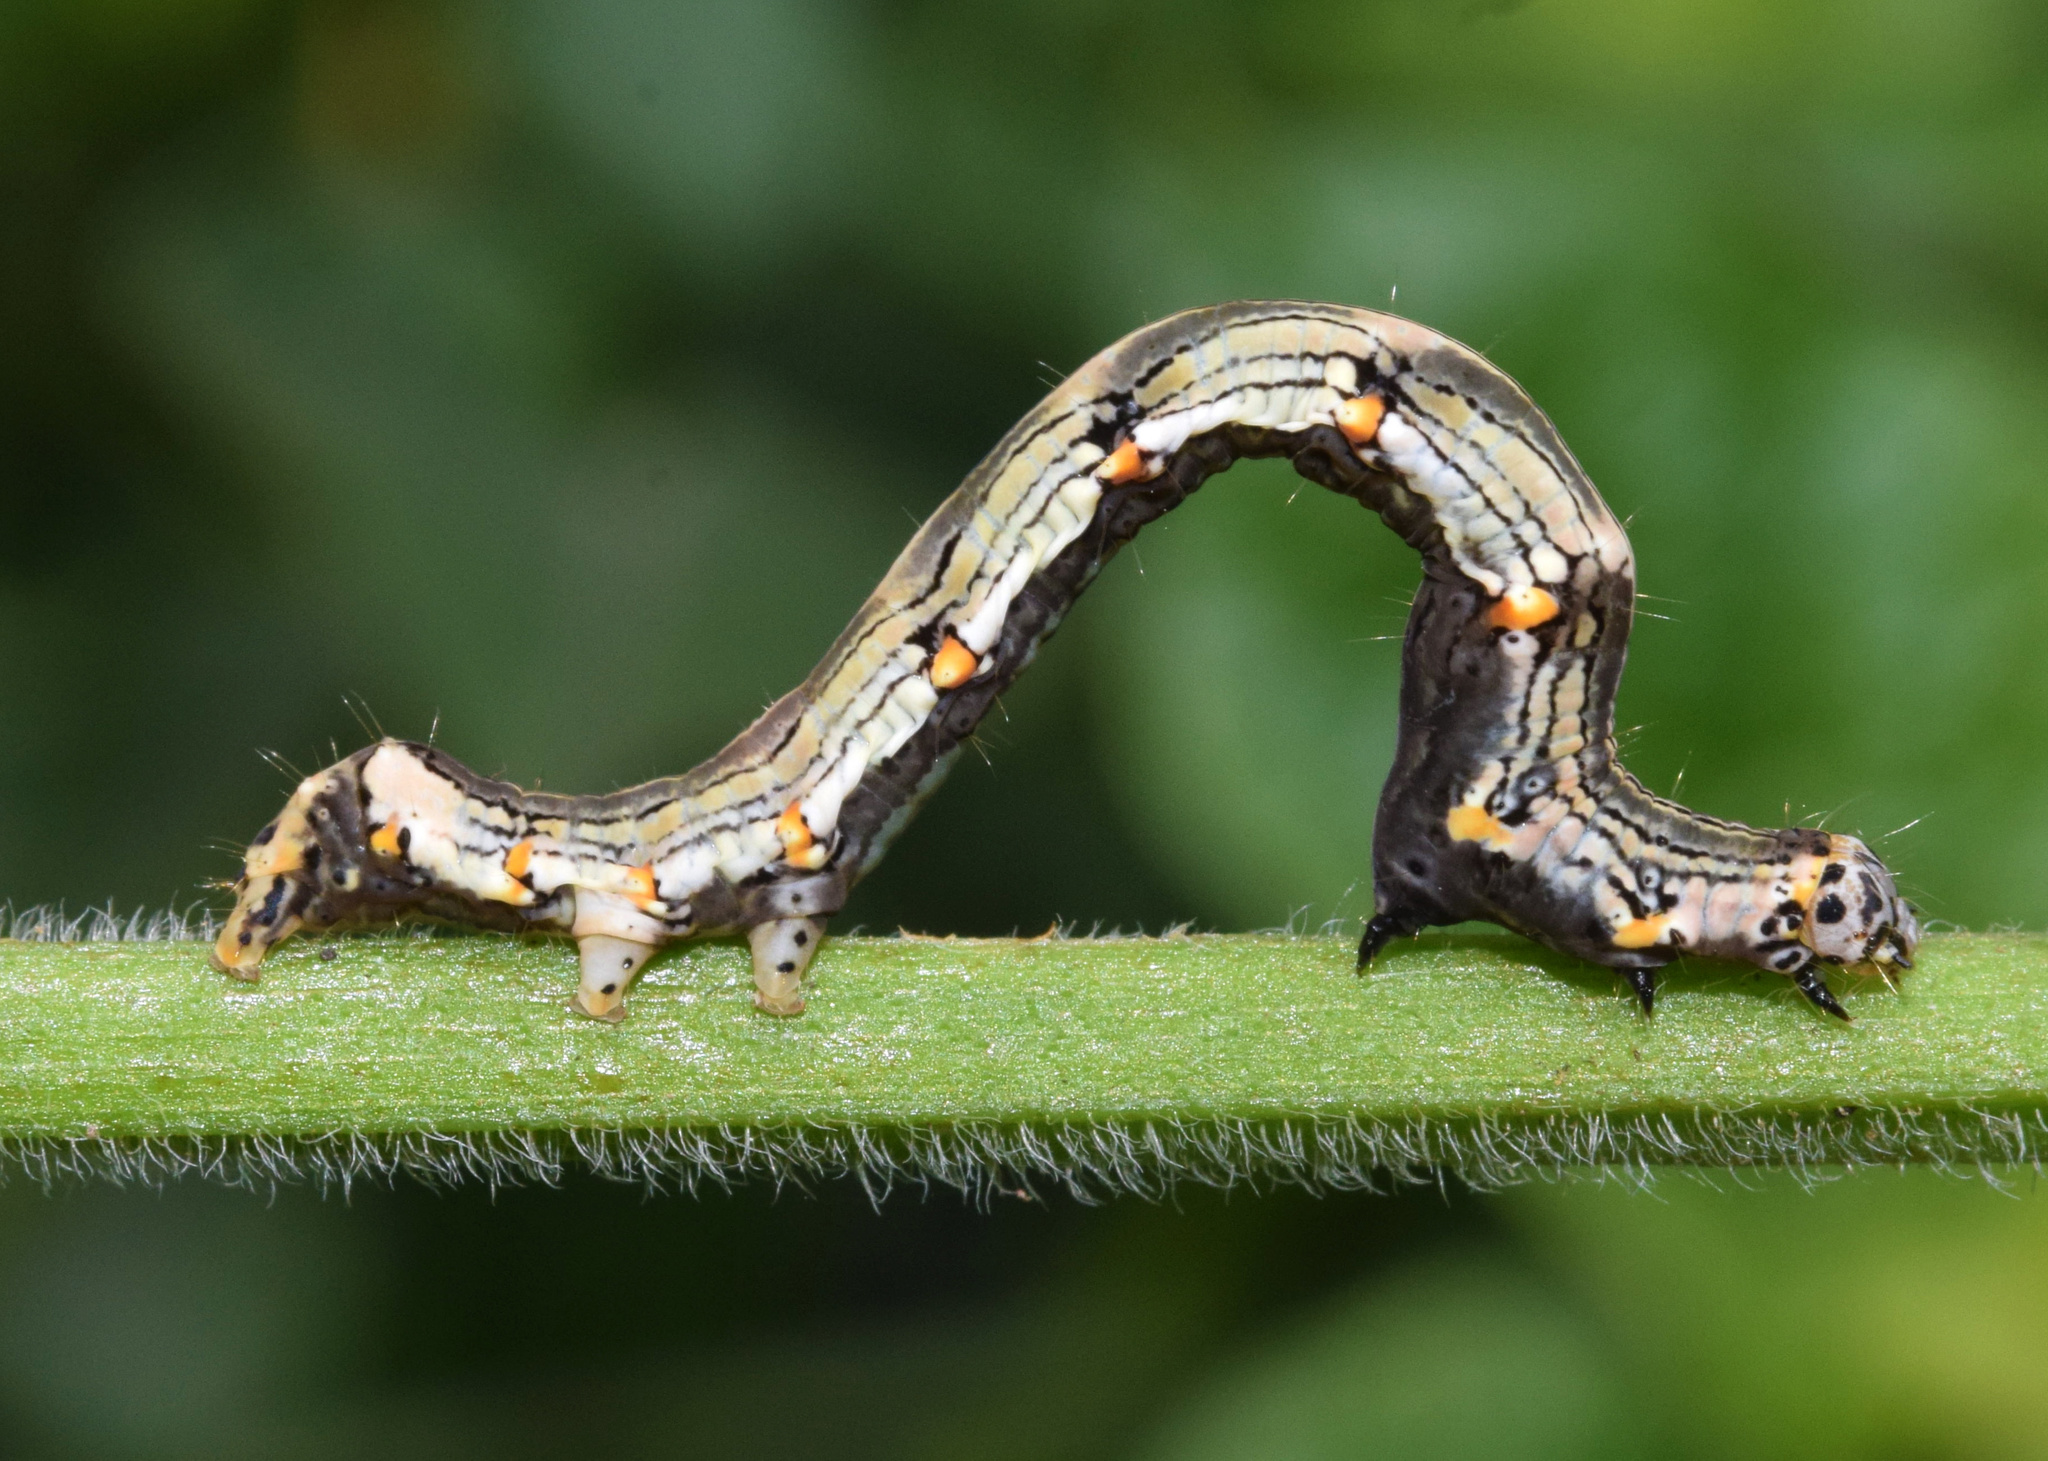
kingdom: Animalia
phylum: Arthropoda
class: Insecta
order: Lepidoptera
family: Noctuidae
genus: Ozarba
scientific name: Ozarba abscissa
